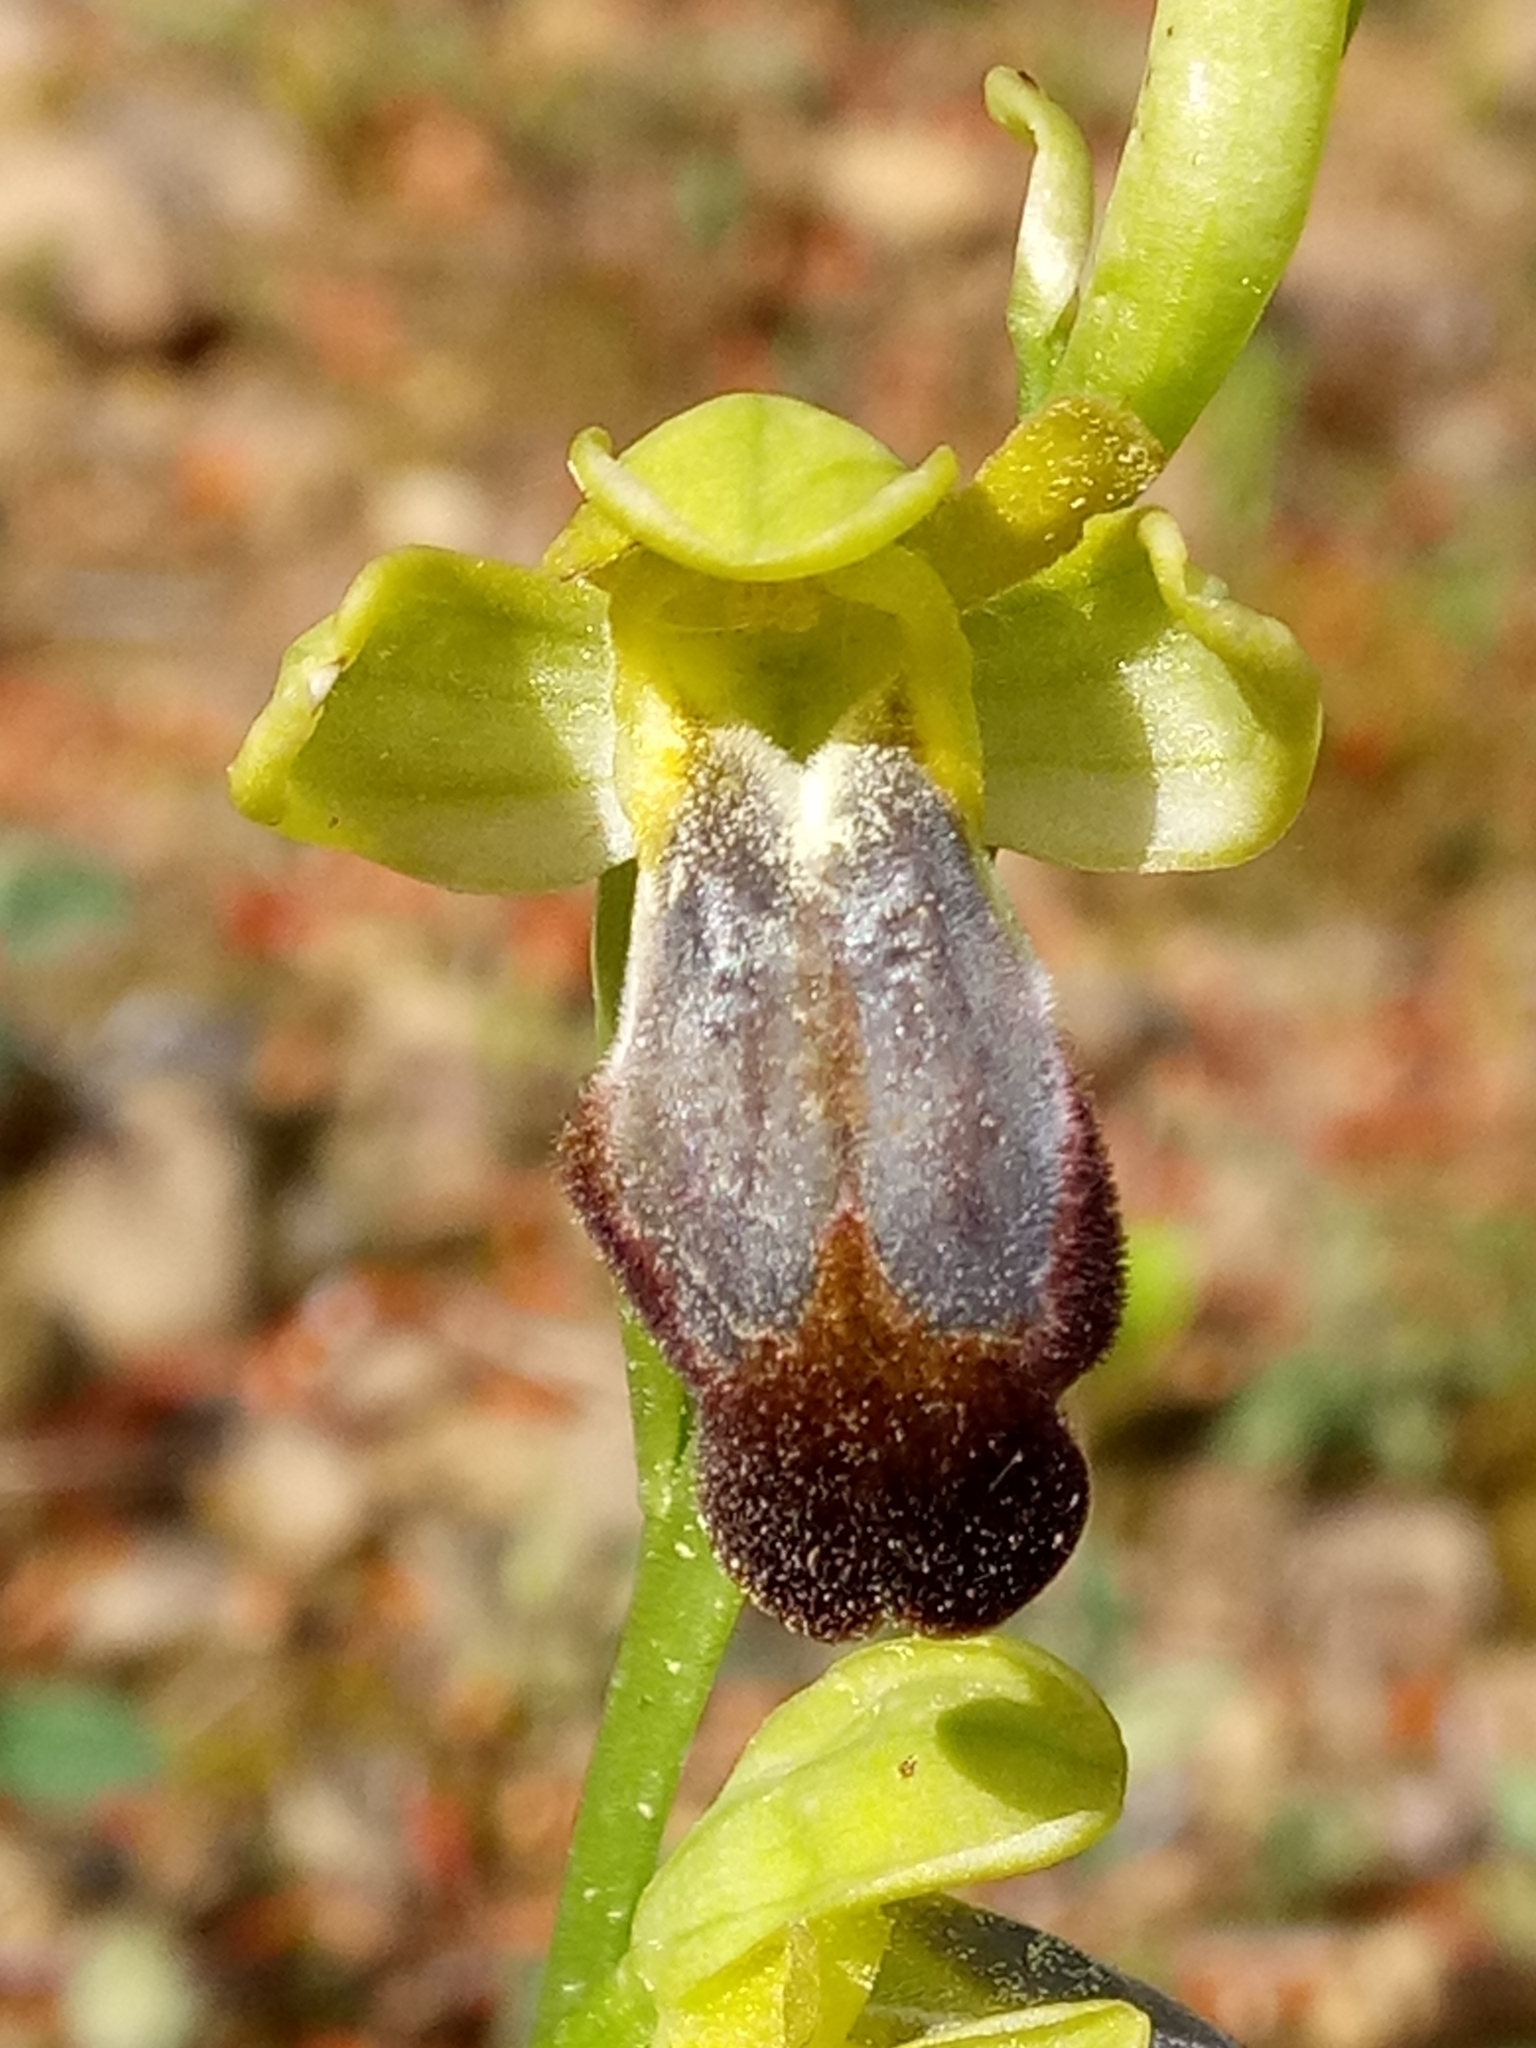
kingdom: Plantae
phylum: Tracheophyta
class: Liliopsida
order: Asparagales
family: Orchidaceae
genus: Ophrys
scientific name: Ophrys fusca
